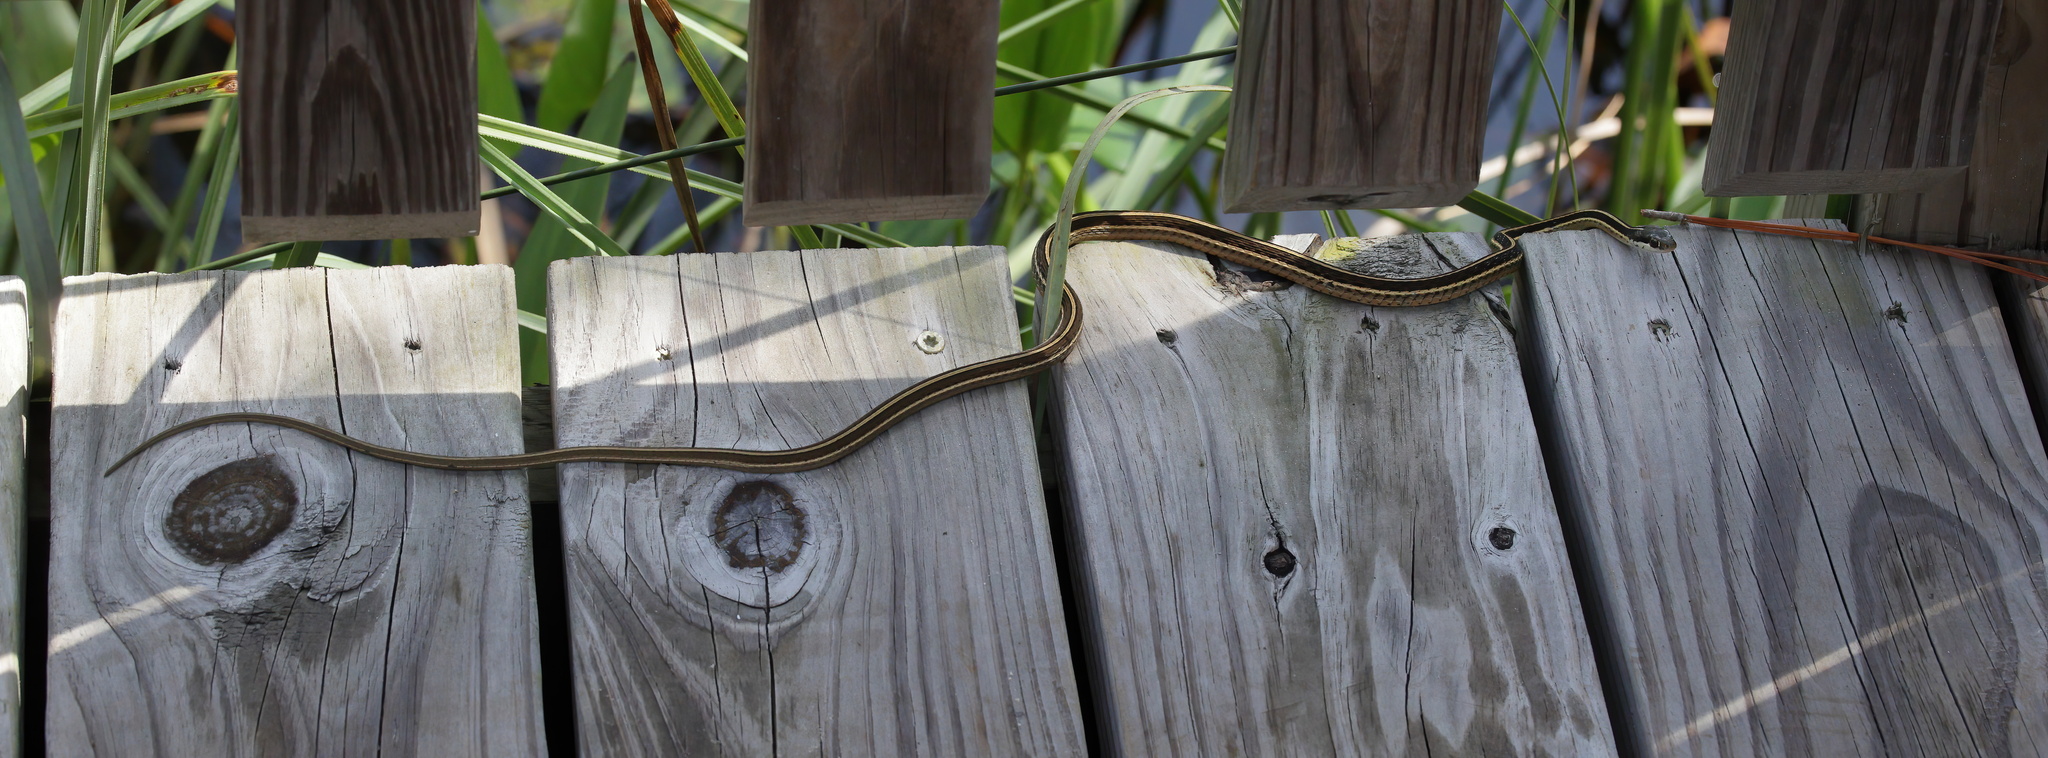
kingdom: Animalia
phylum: Chordata
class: Squamata
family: Colubridae
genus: Thamnophis
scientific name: Thamnophis saurita
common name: Eastern ribbonsnake
